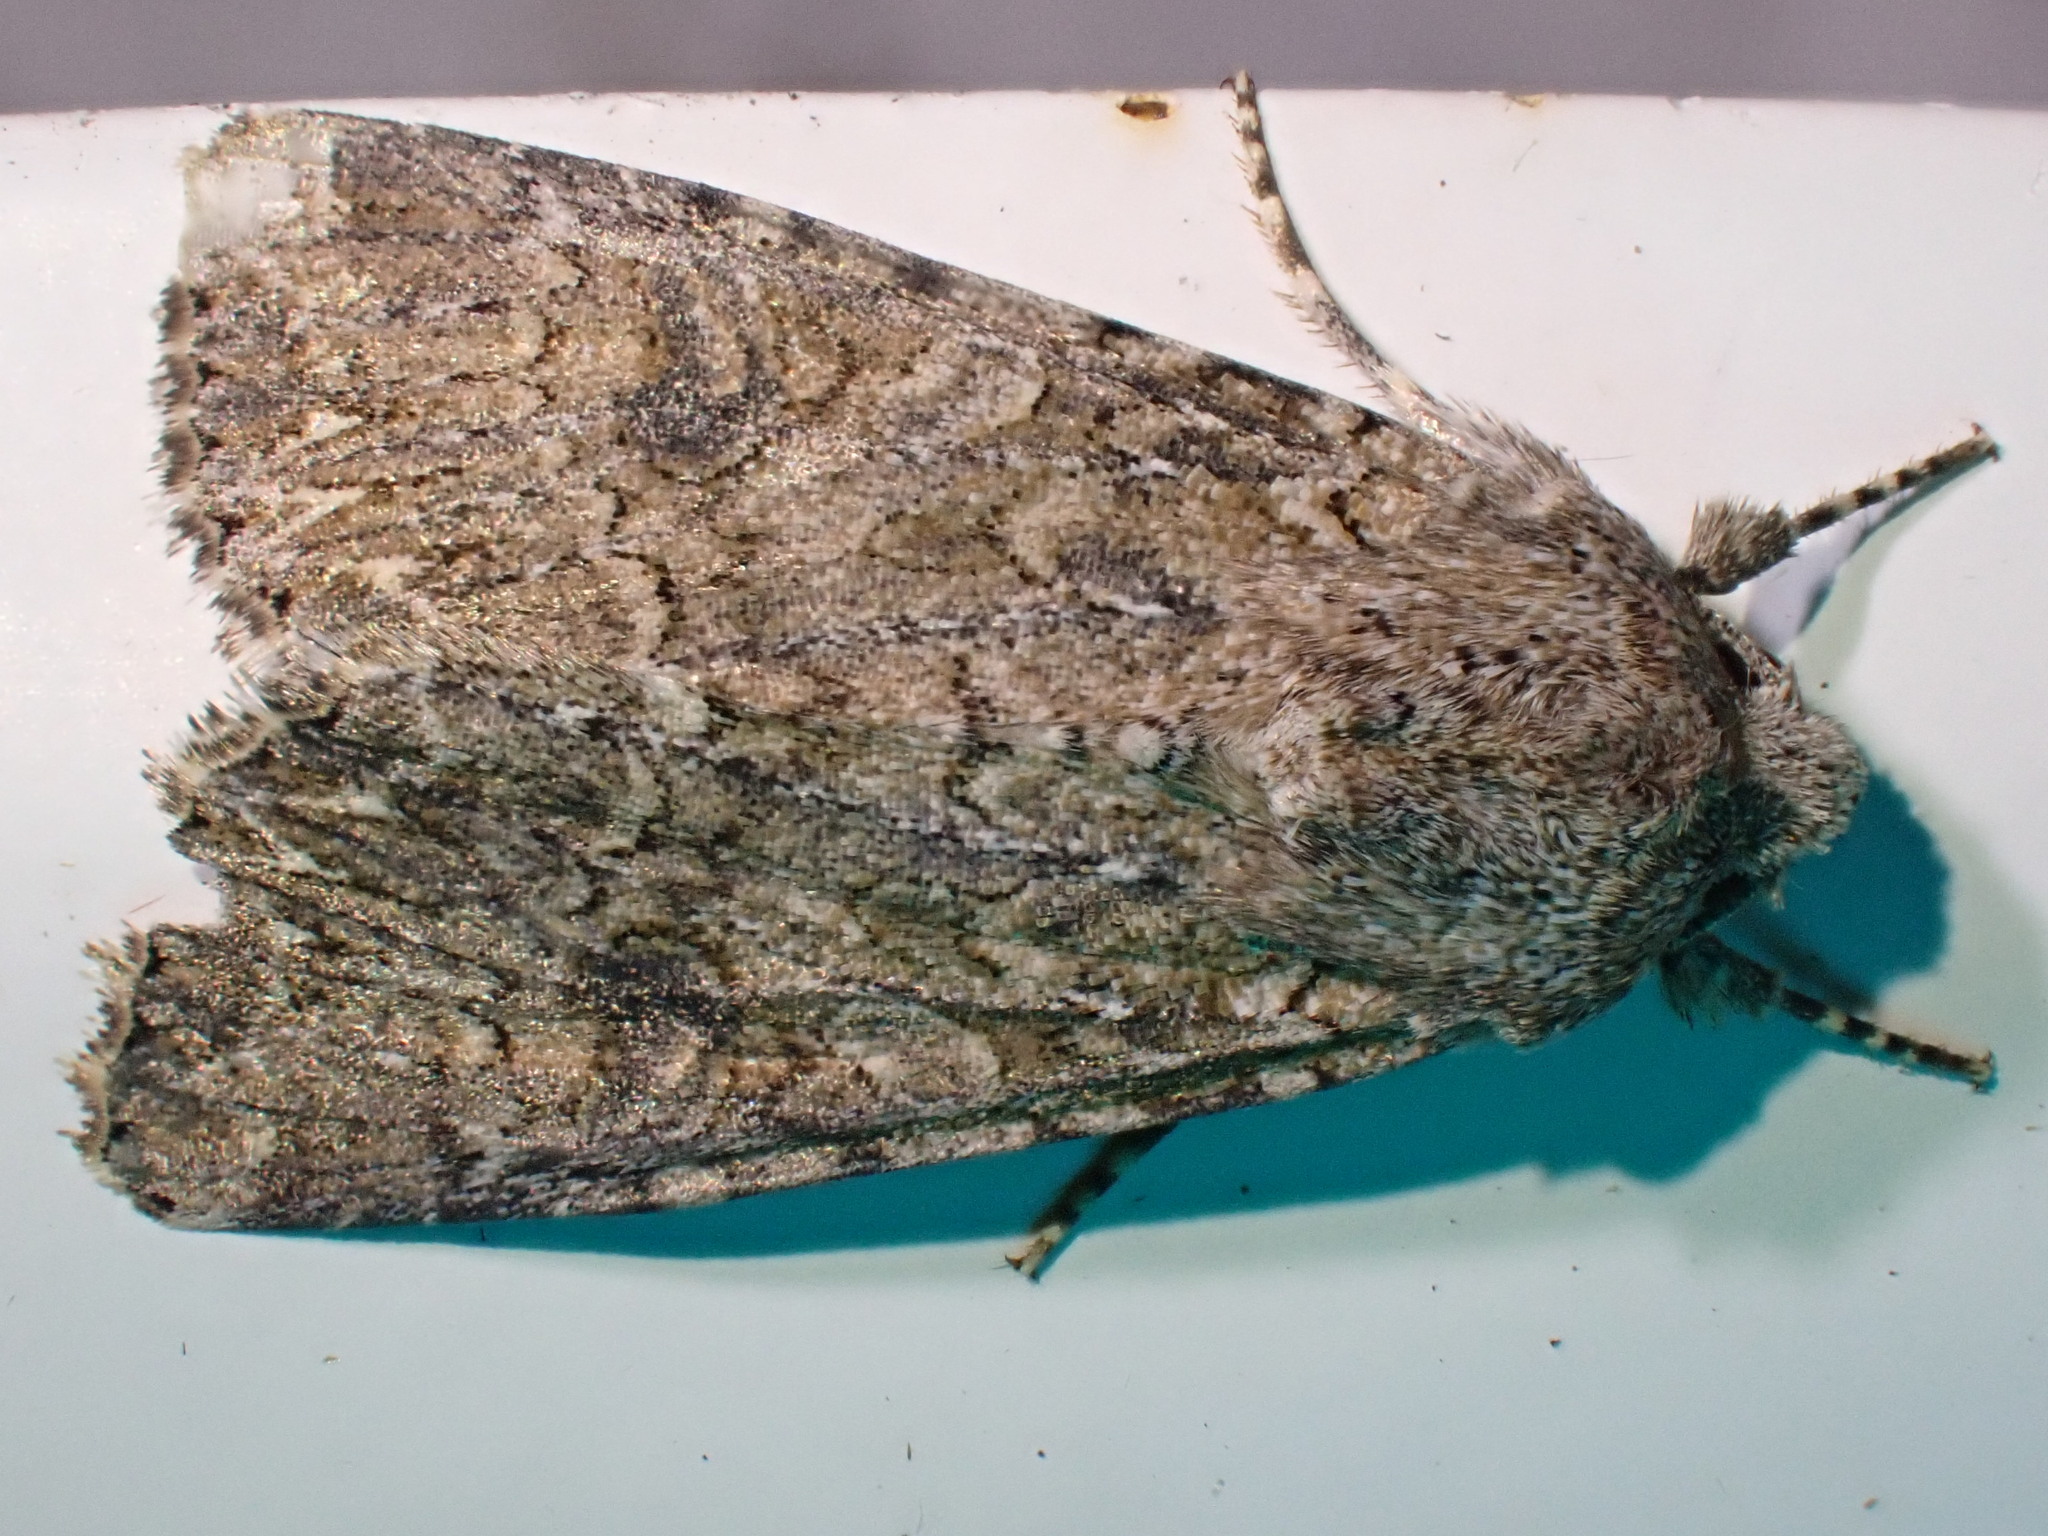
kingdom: Animalia
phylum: Arthropoda
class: Insecta
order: Lepidoptera
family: Noctuidae
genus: Anarta
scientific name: Anarta trifolii
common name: Clover cutworm moth
